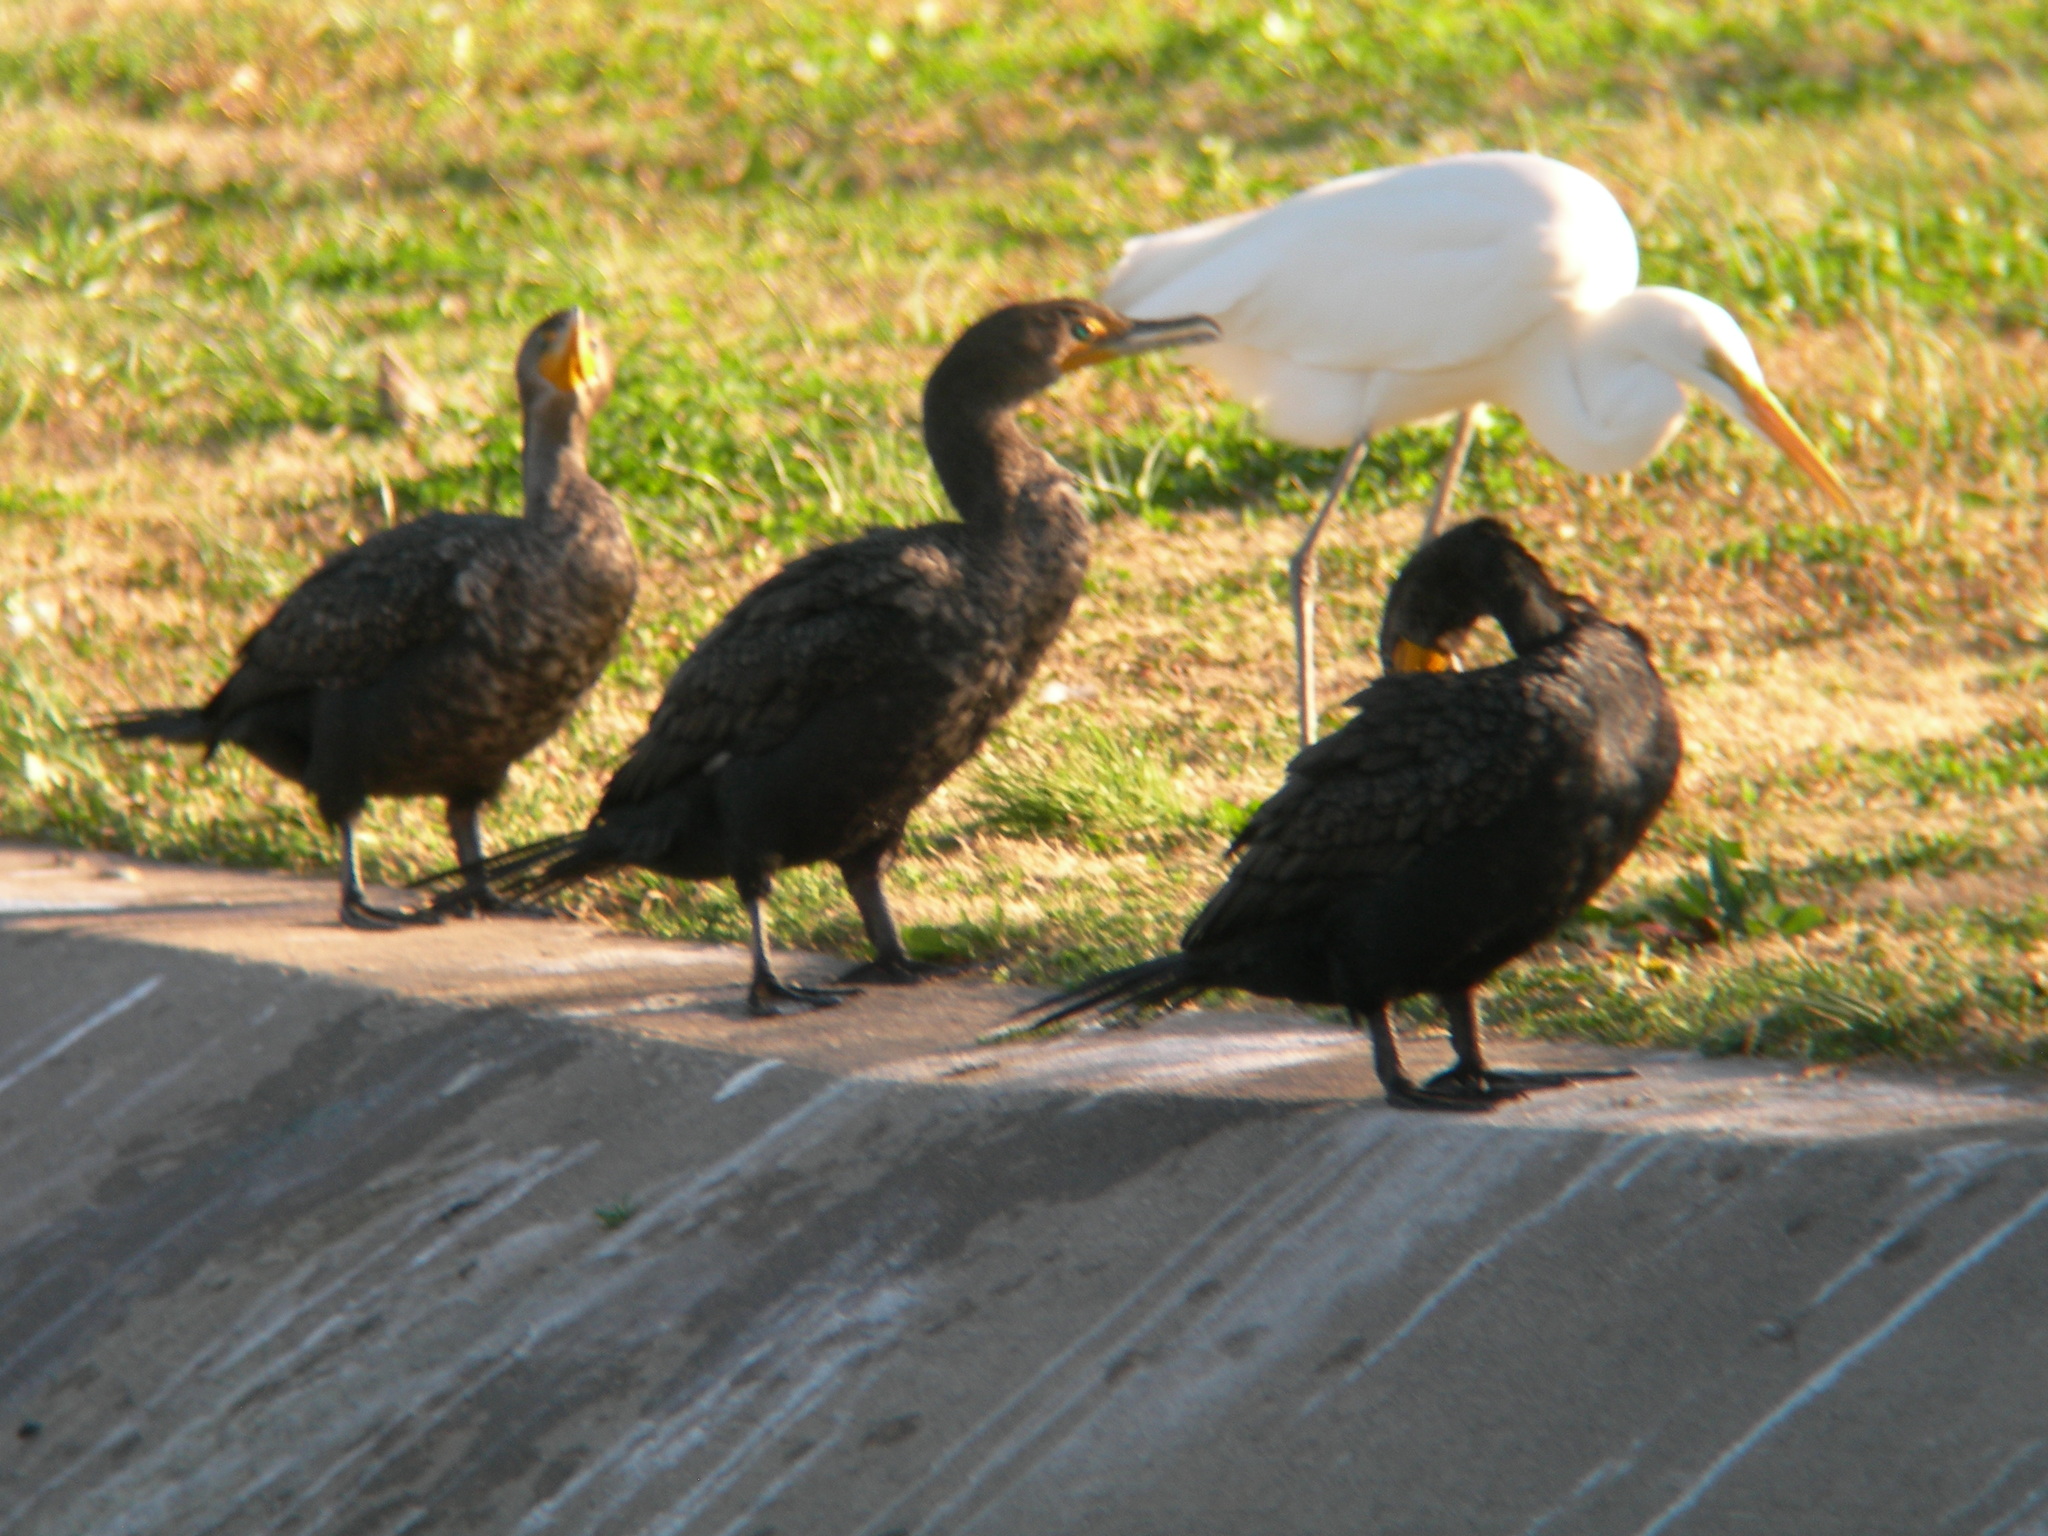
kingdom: Animalia
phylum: Chordata
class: Aves
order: Suliformes
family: Phalacrocoracidae
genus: Phalacrocorax
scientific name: Phalacrocorax auritus
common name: Double-crested cormorant
